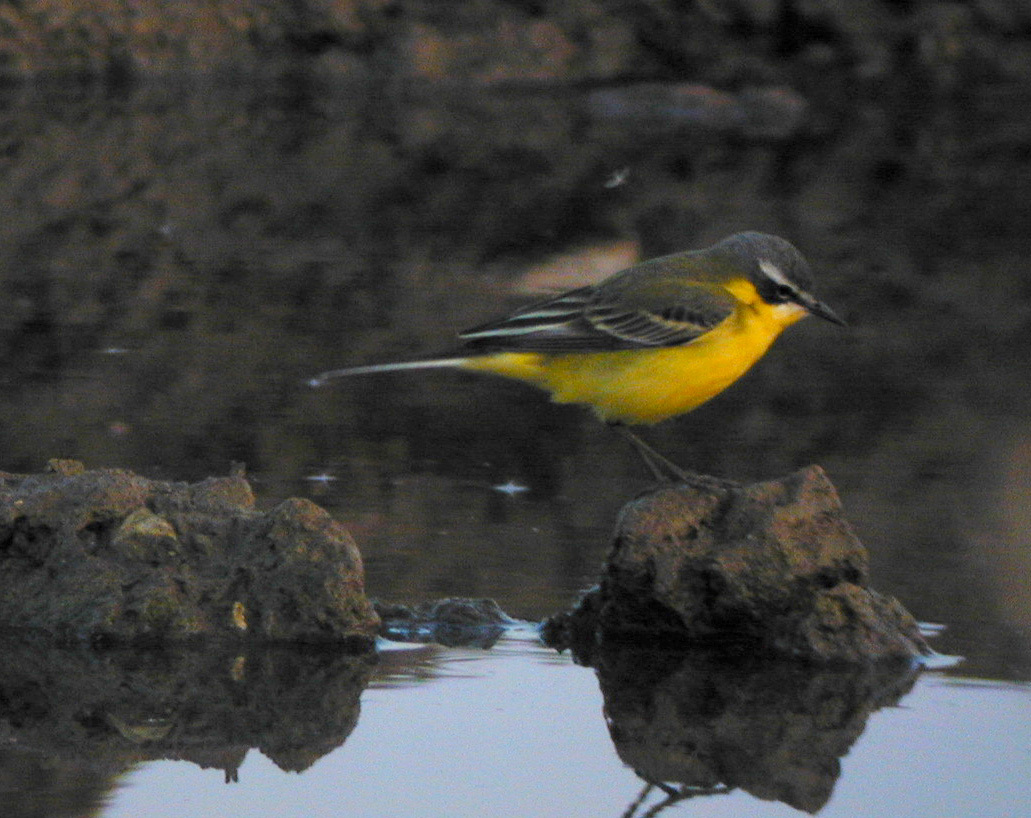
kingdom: Animalia
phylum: Chordata
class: Aves
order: Passeriformes
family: Motacillidae
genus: Motacilla
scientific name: Motacilla flava
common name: Western yellow wagtail
